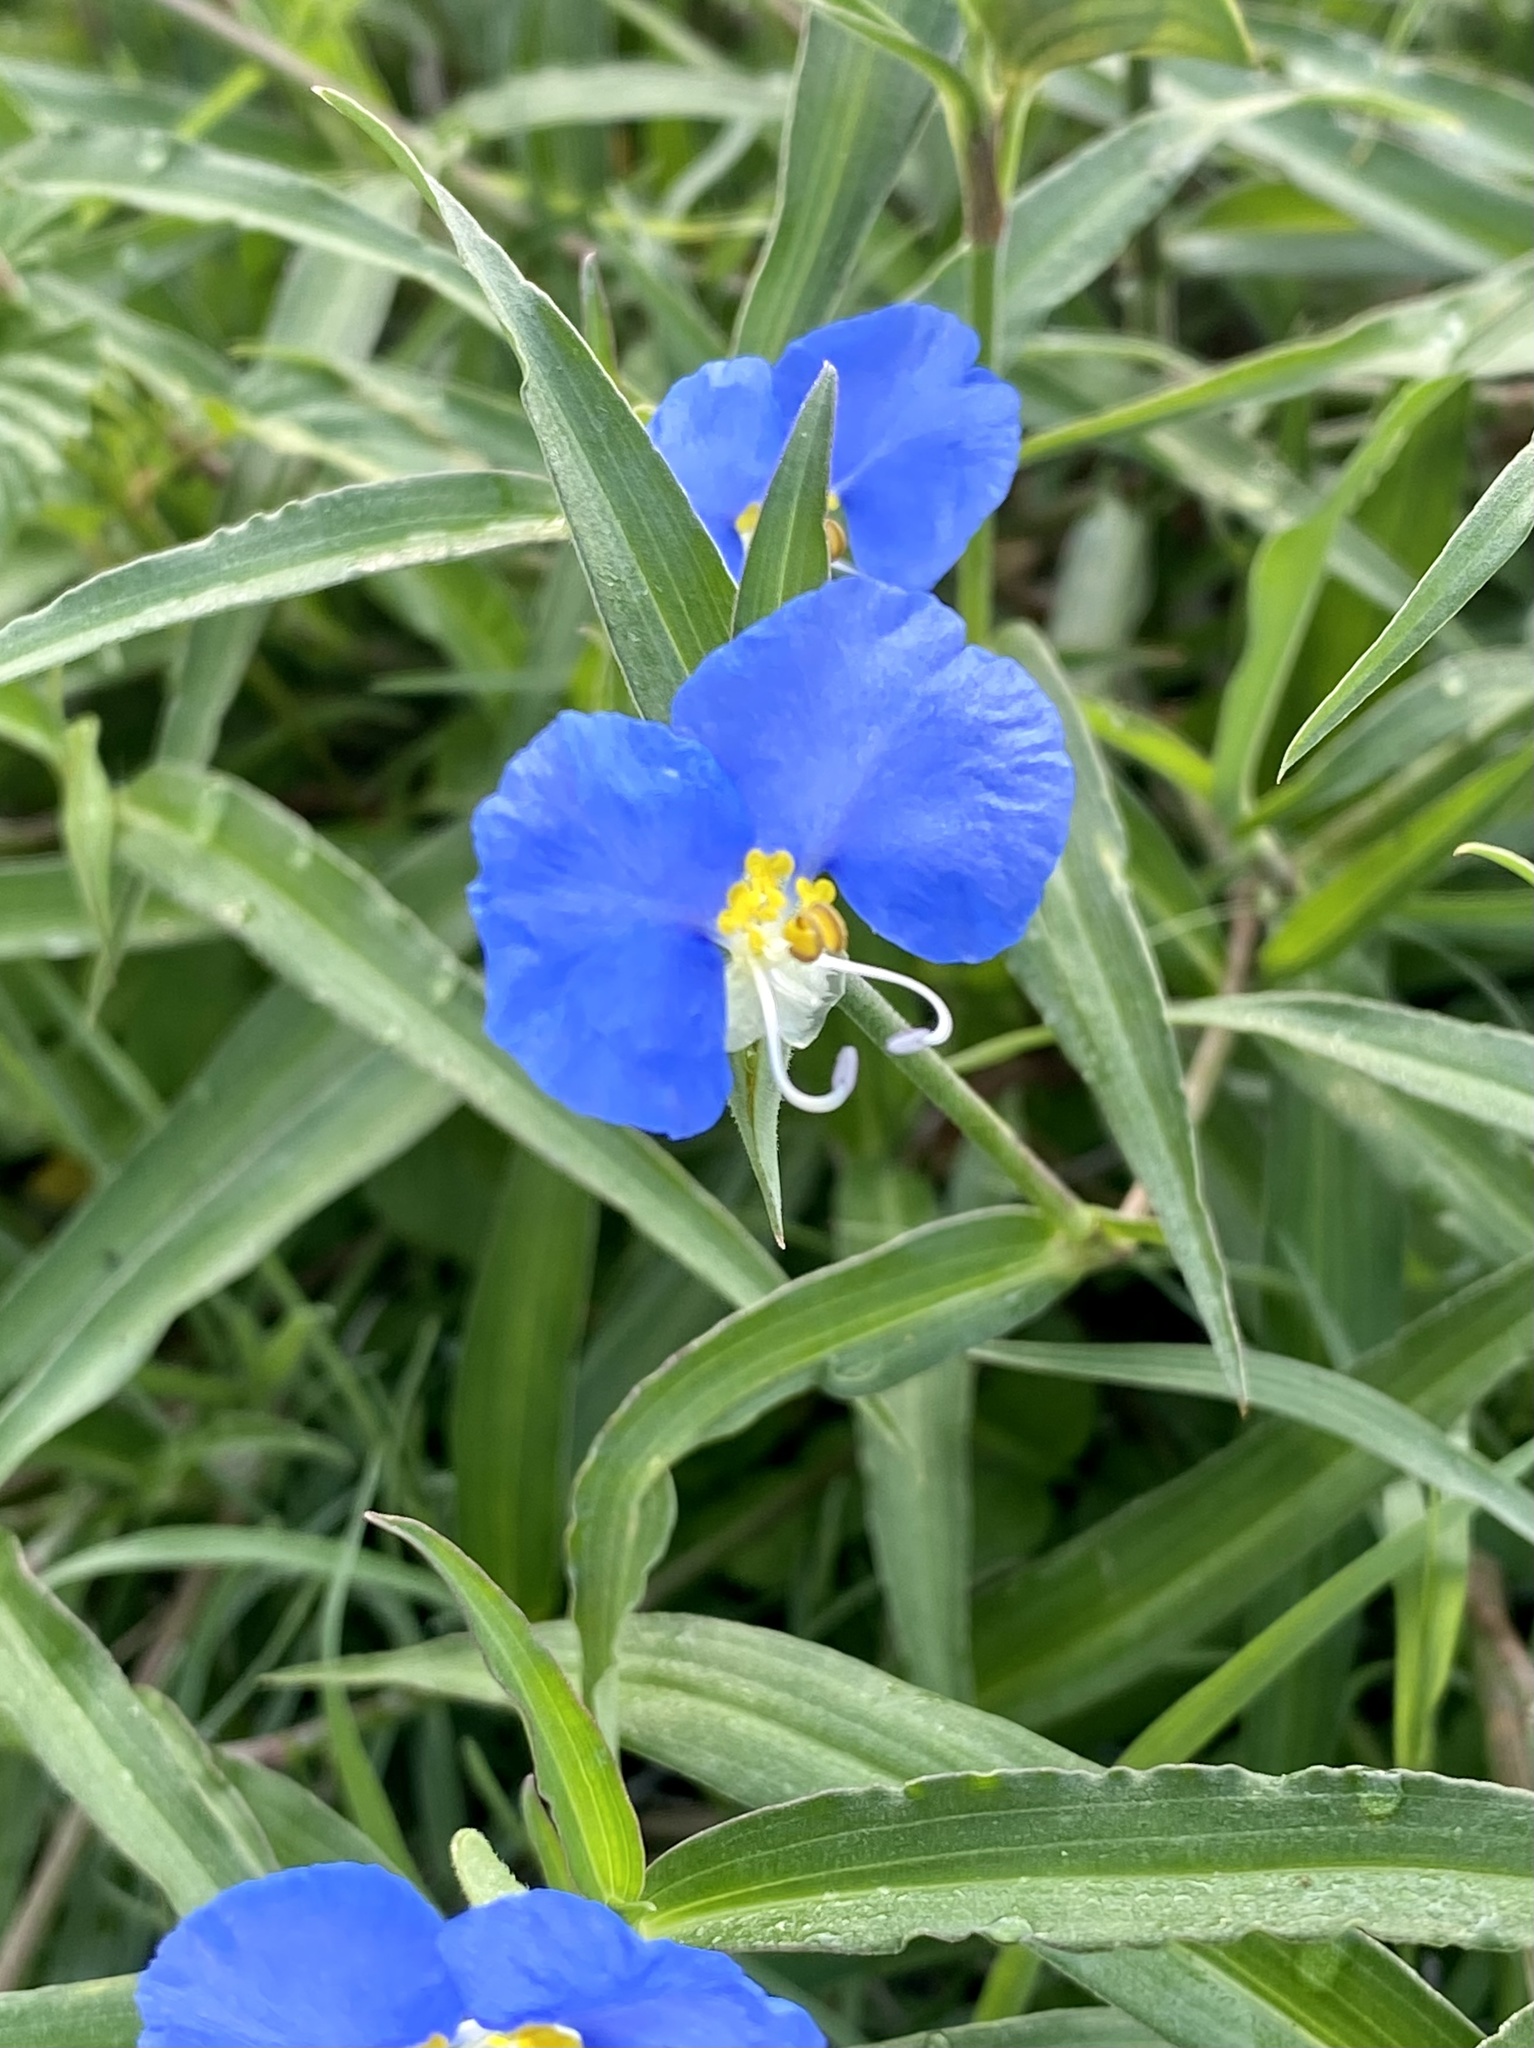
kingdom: Plantae
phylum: Tracheophyta
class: Liliopsida
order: Commelinales
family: Commelinaceae
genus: Commelina
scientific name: Commelina erecta
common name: Blousel blommetjie
